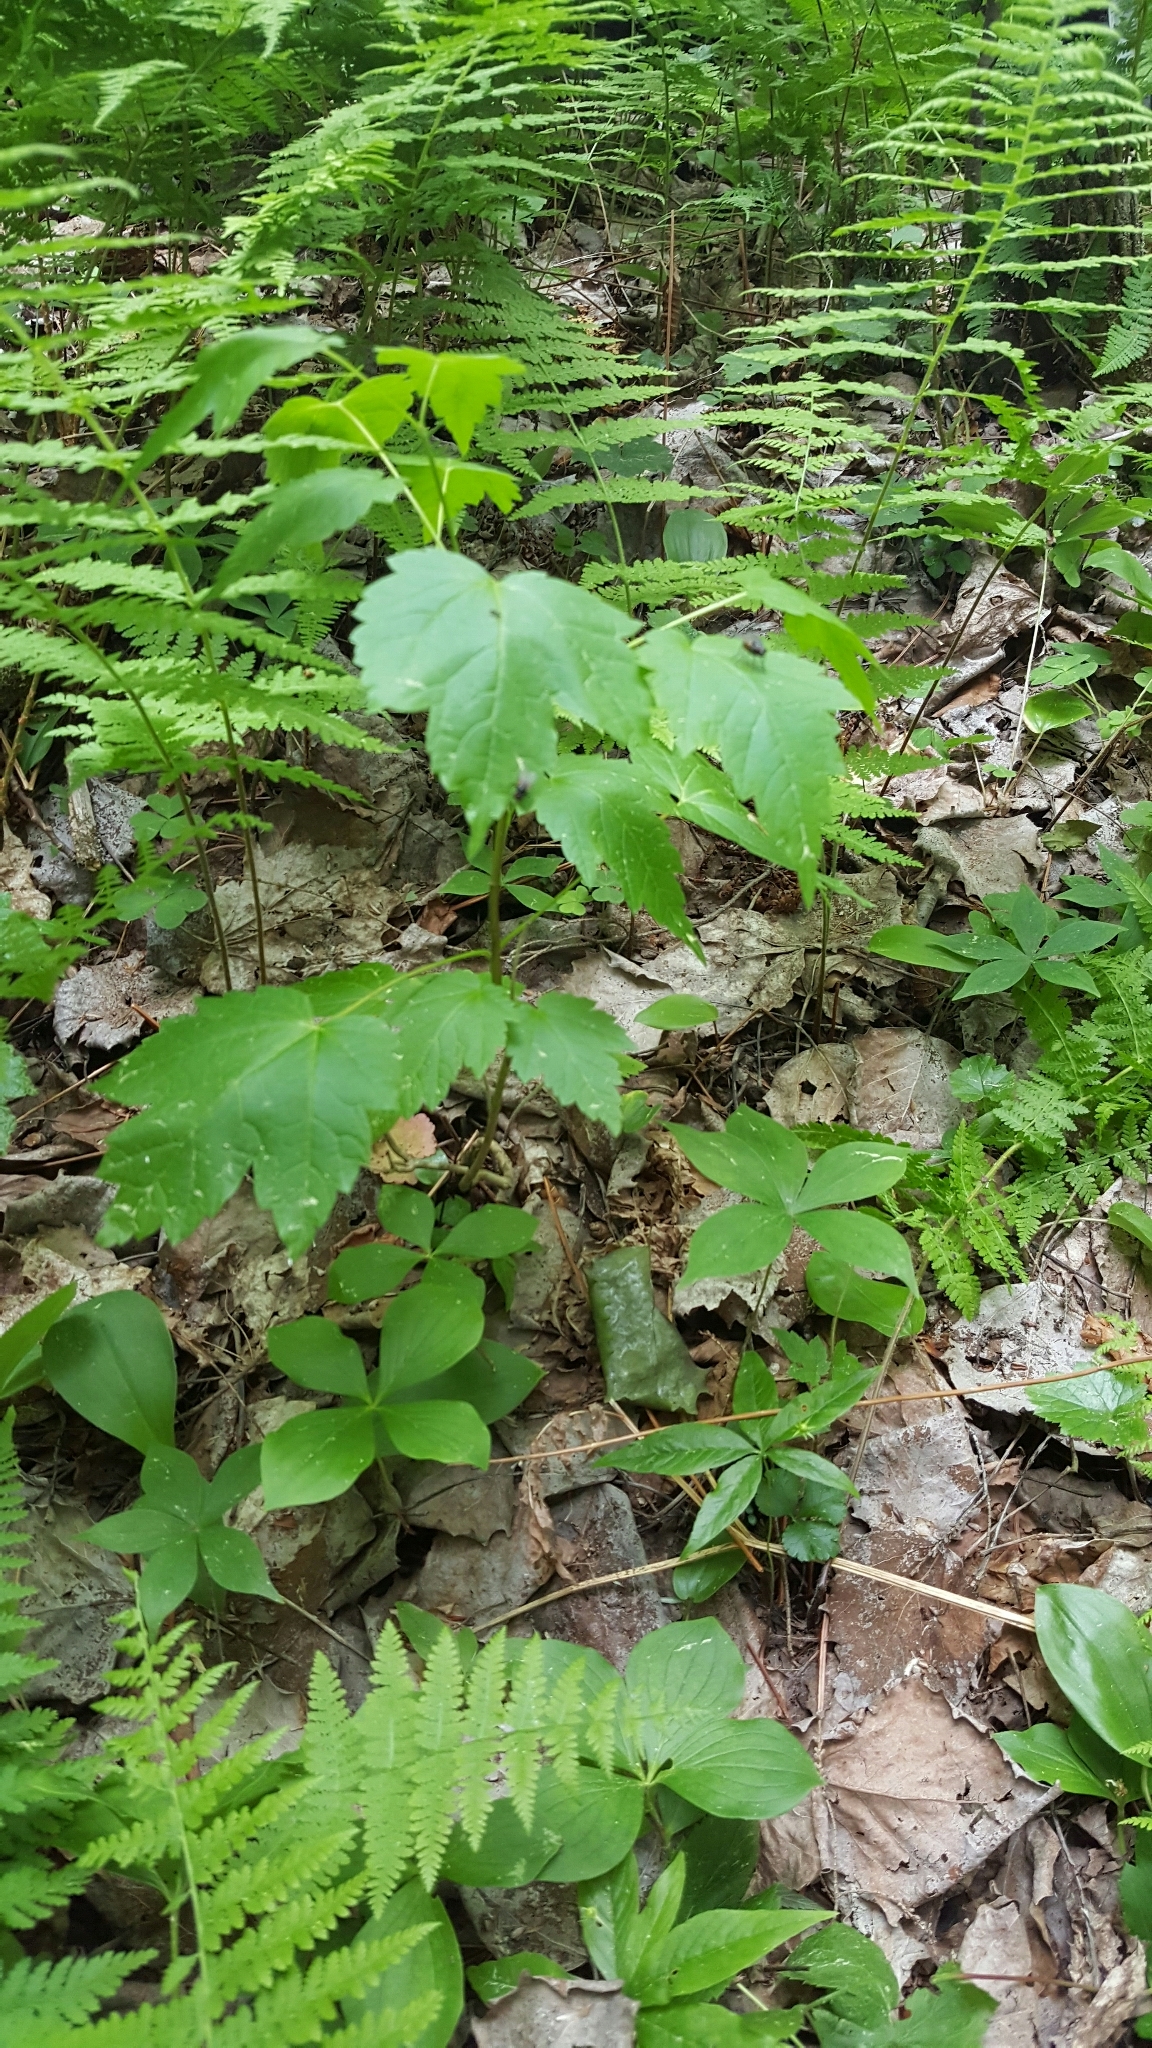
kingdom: Plantae
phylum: Tracheophyta
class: Magnoliopsida
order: Sapindales
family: Sapindaceae
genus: Acer
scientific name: Acer rubrum
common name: Red maple
